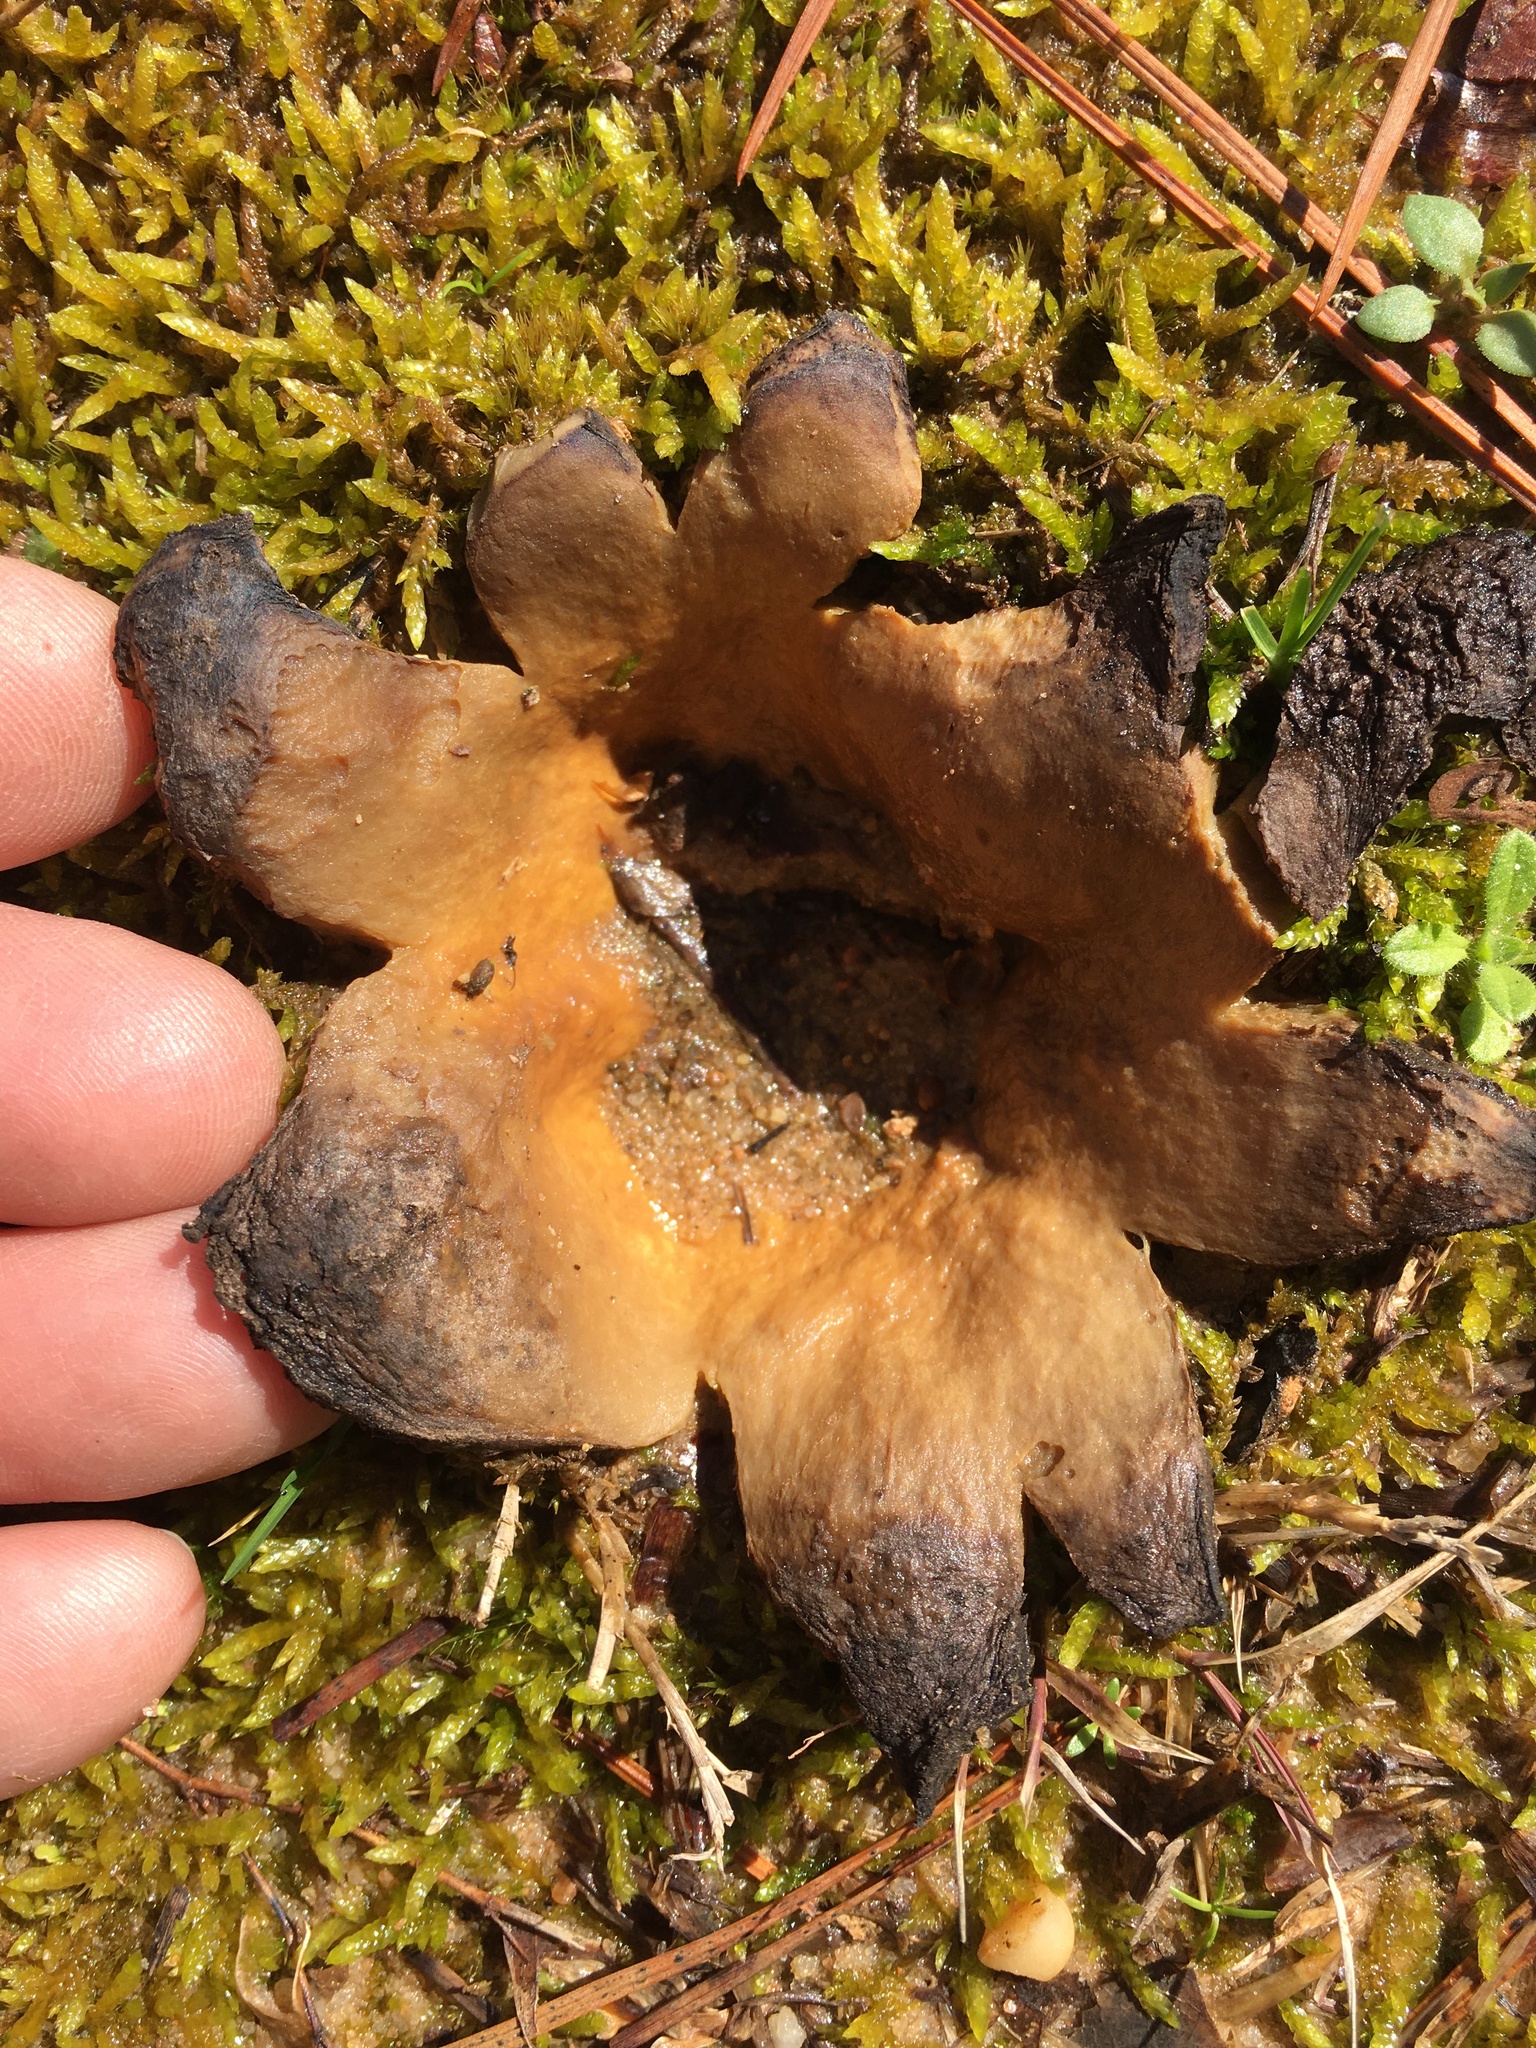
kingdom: Fungi
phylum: Basidiomycota
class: Agaricomycetes
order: Boletales
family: Sclerodermataceae
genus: Scleroderma
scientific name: Scleroderma polyrhizum
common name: Many-rooted earthball
